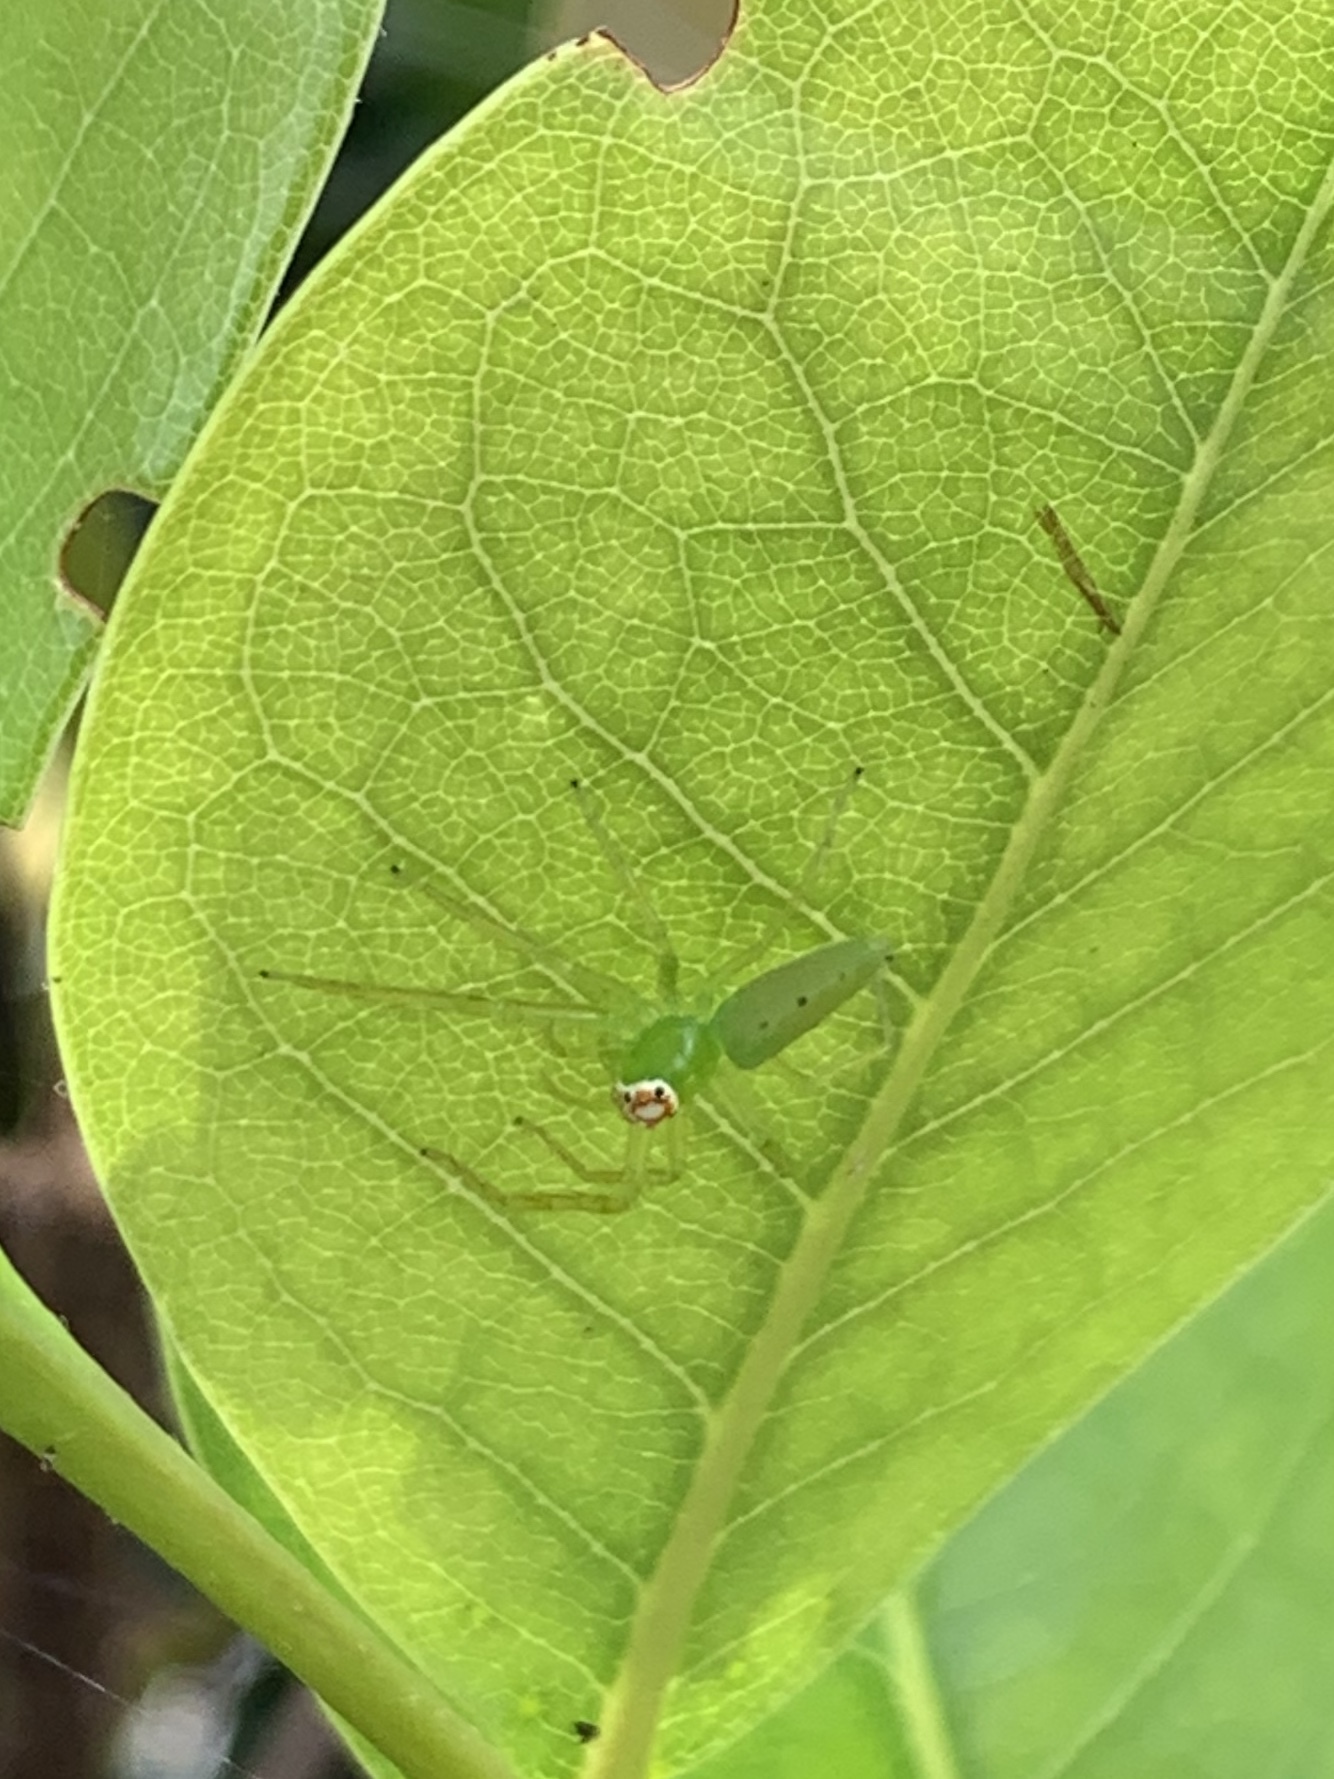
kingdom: Animalia
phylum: Arthropoda
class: Arachnida
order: Araneae
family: Salticidae
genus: Lyssomanes
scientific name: Lyssomanes viridis
